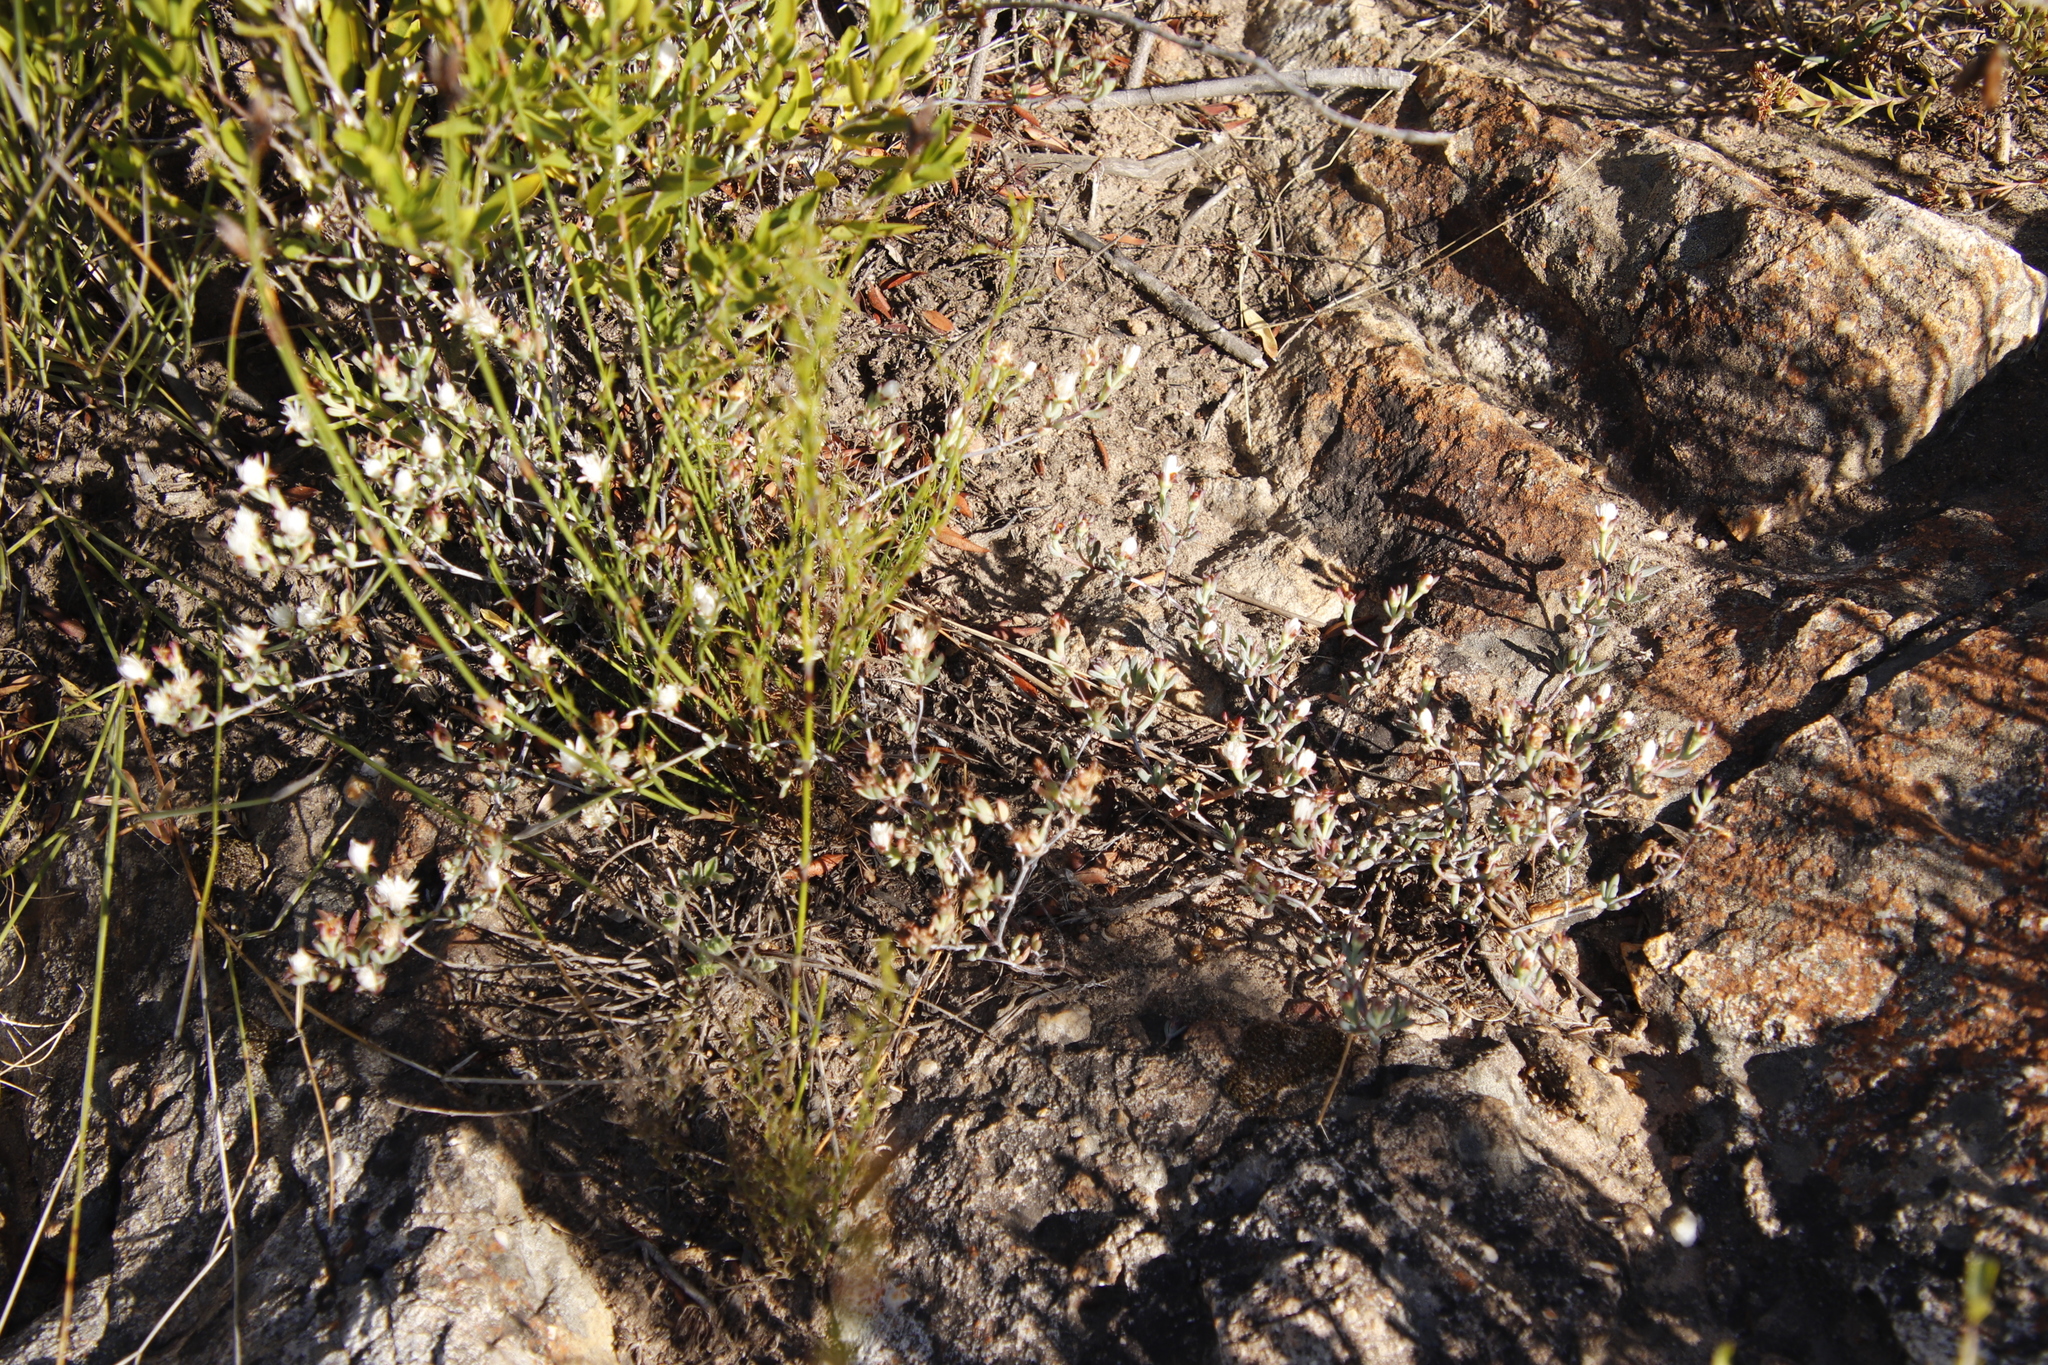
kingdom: Plantae
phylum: Tracheophyta
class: Magnoliopsida
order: Caryophyllales
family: Aizoaceae
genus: Lampranthus
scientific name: Lampranthus falcatus
